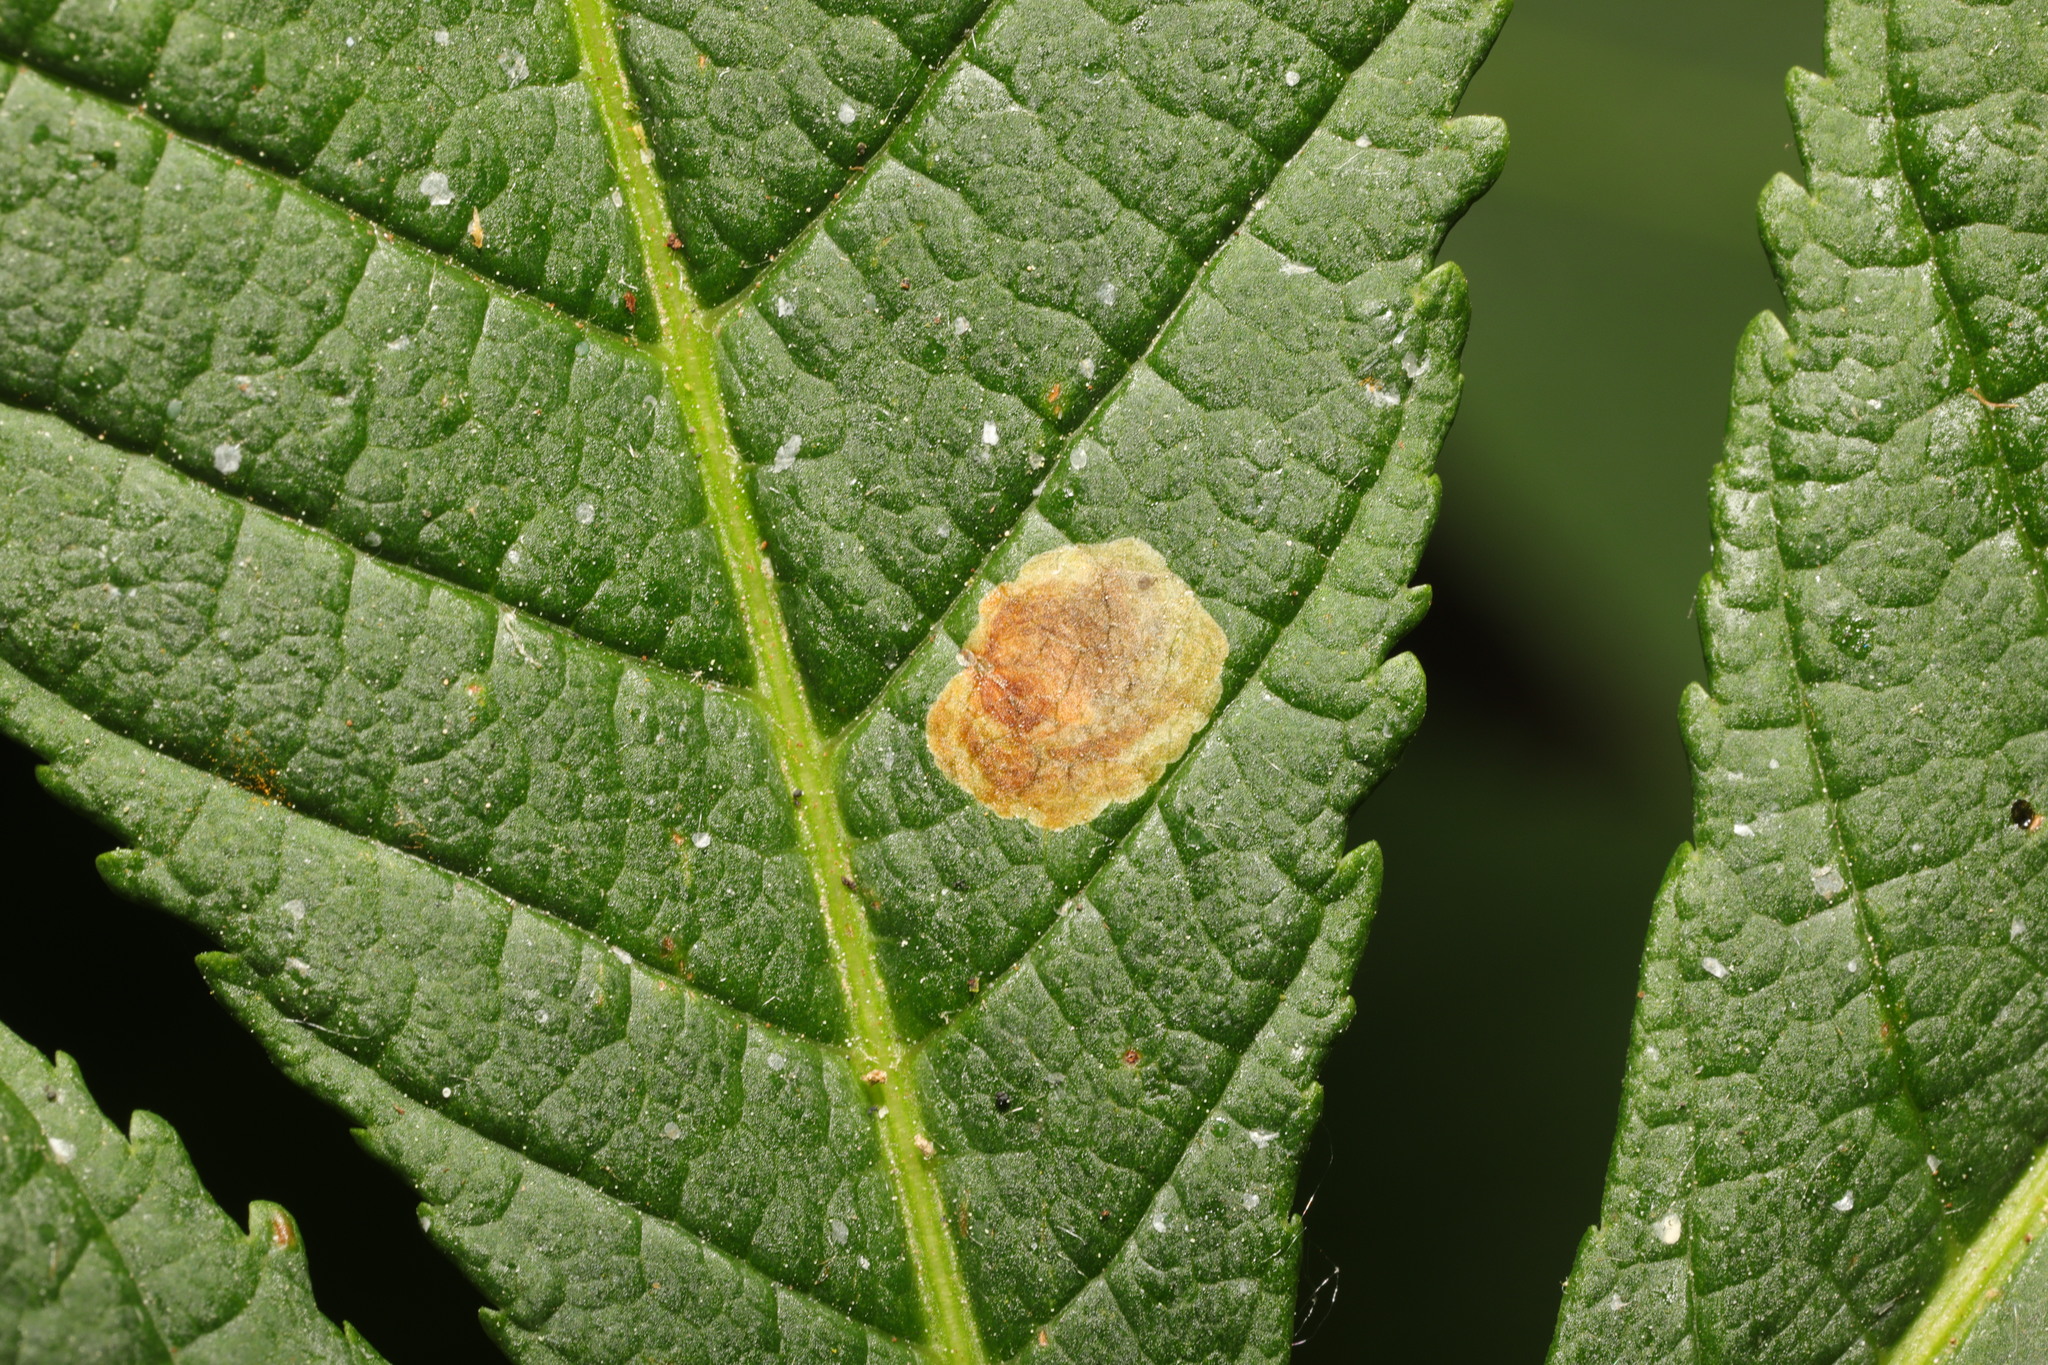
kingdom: Animalia
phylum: Arthropoda
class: Insecta
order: Lepidoptera
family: Gracillariidae
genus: Cameraria
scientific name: Cameraria ohridella
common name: Horse-chestnut leaf-miner
